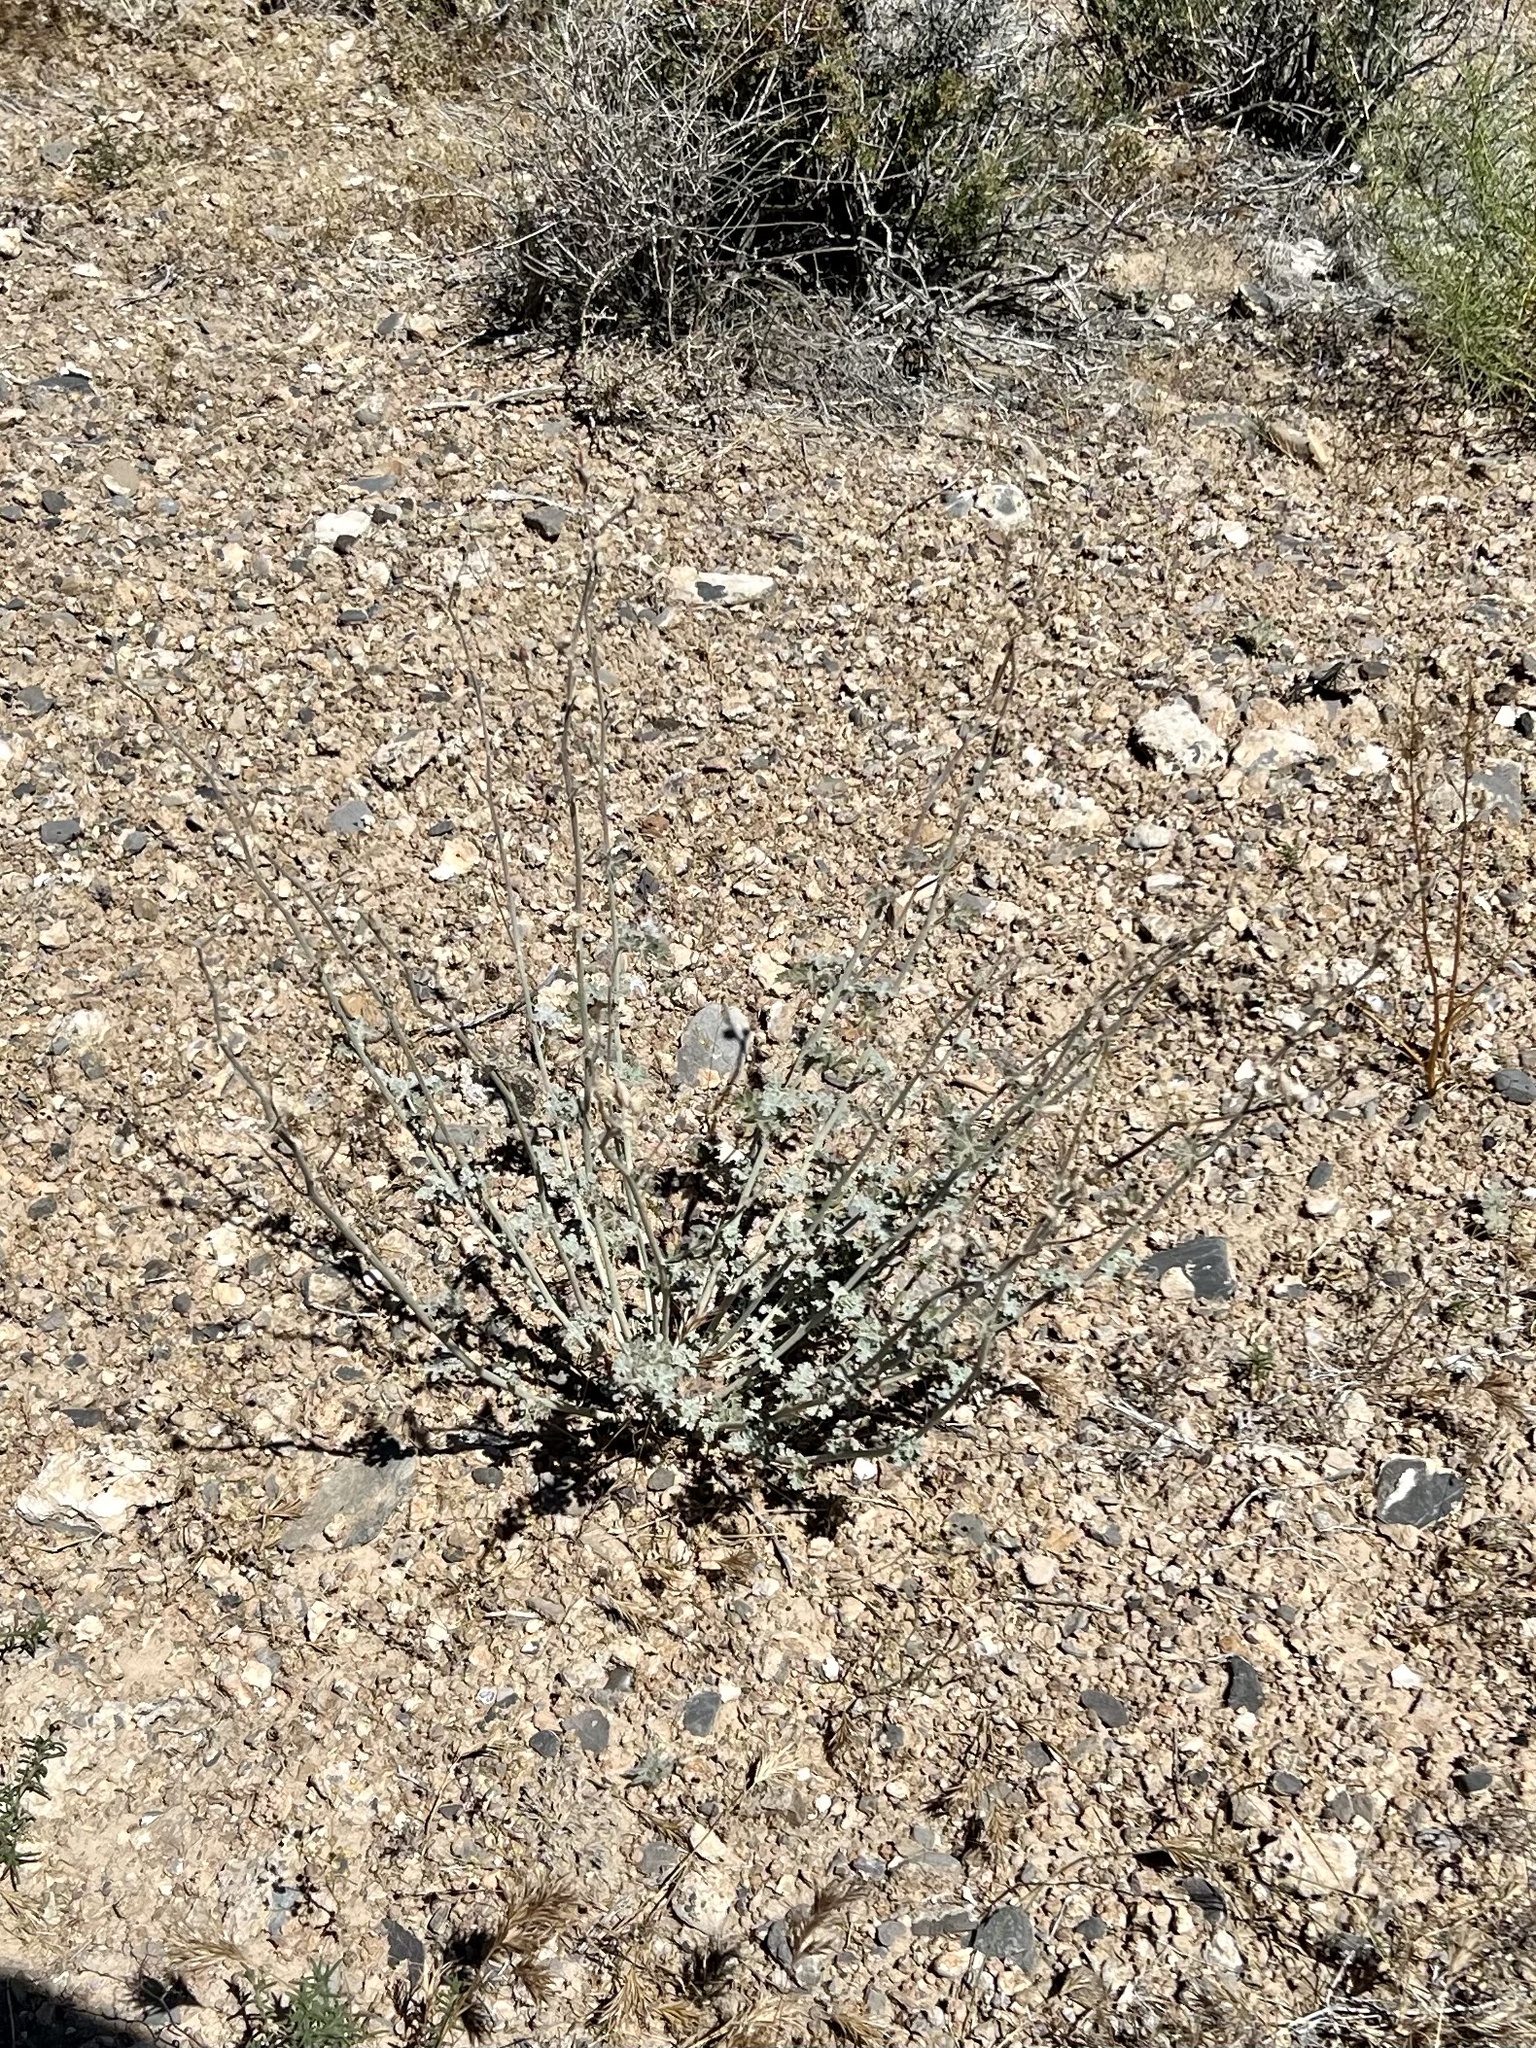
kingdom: Plantae
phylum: Tracheophyta
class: Magnoliopsida
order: Malvales
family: Malvaceae
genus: Sphaeralcea
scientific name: Sphaeralcea ambigua
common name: Apricot globe-mallow
